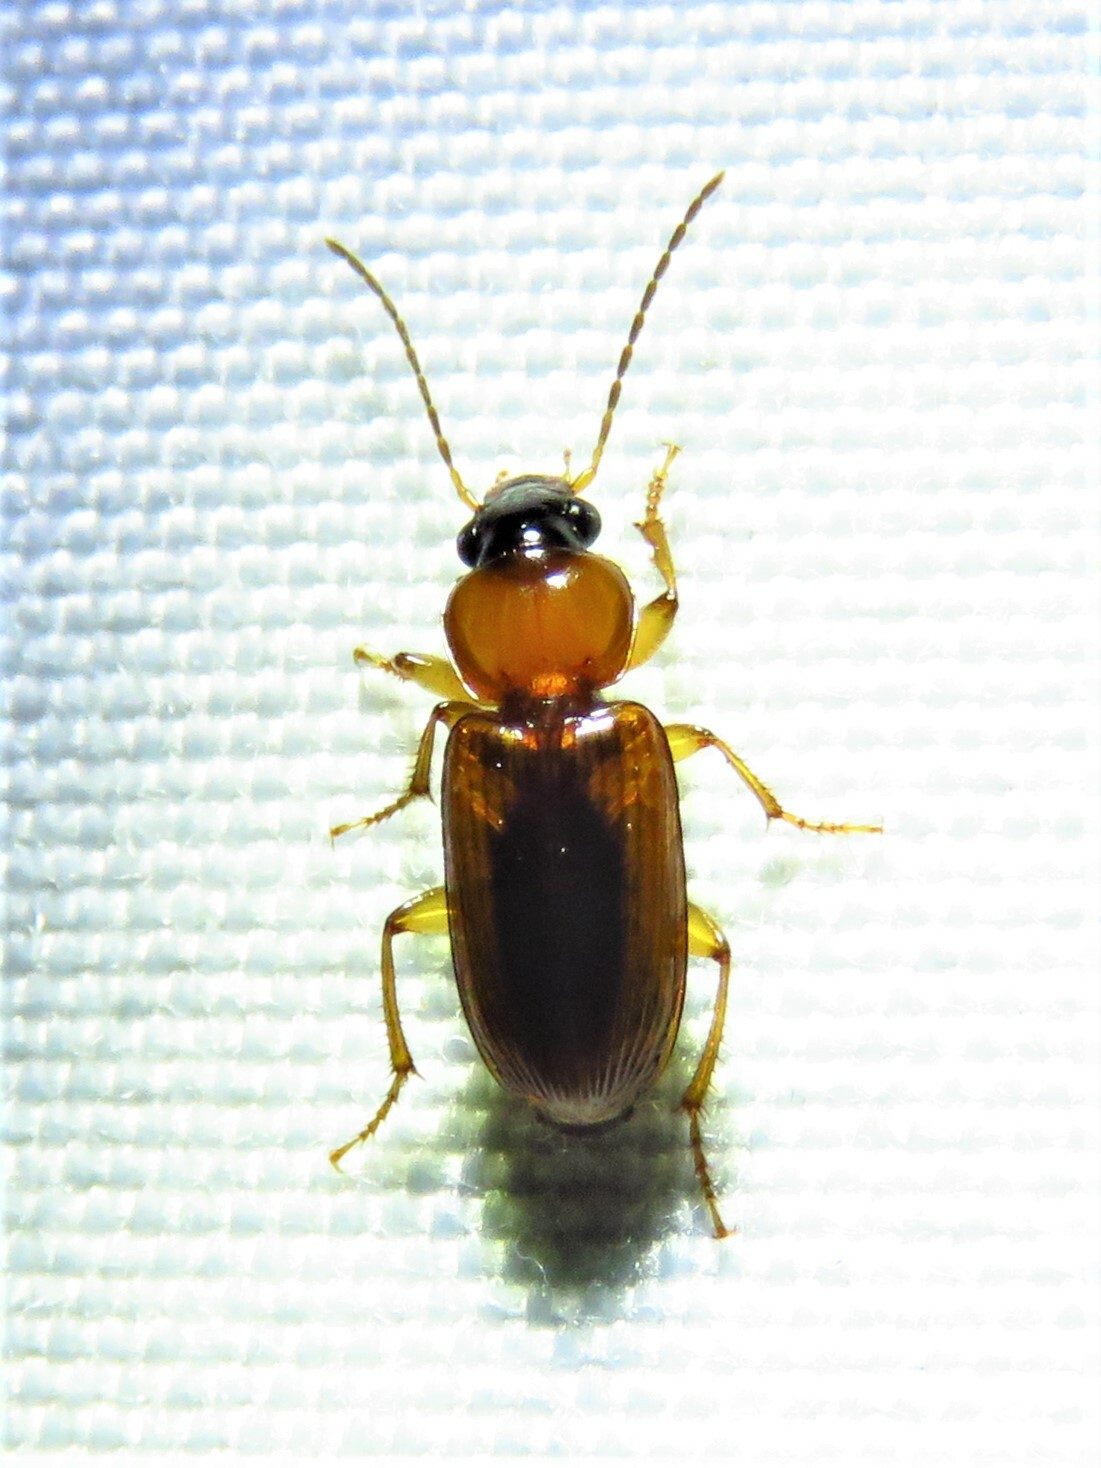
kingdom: Animalia
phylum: Arthropoda
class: Insecta
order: Coleoptera
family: Carabidae
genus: Stenolophus
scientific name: Stenolophus dissimilis
